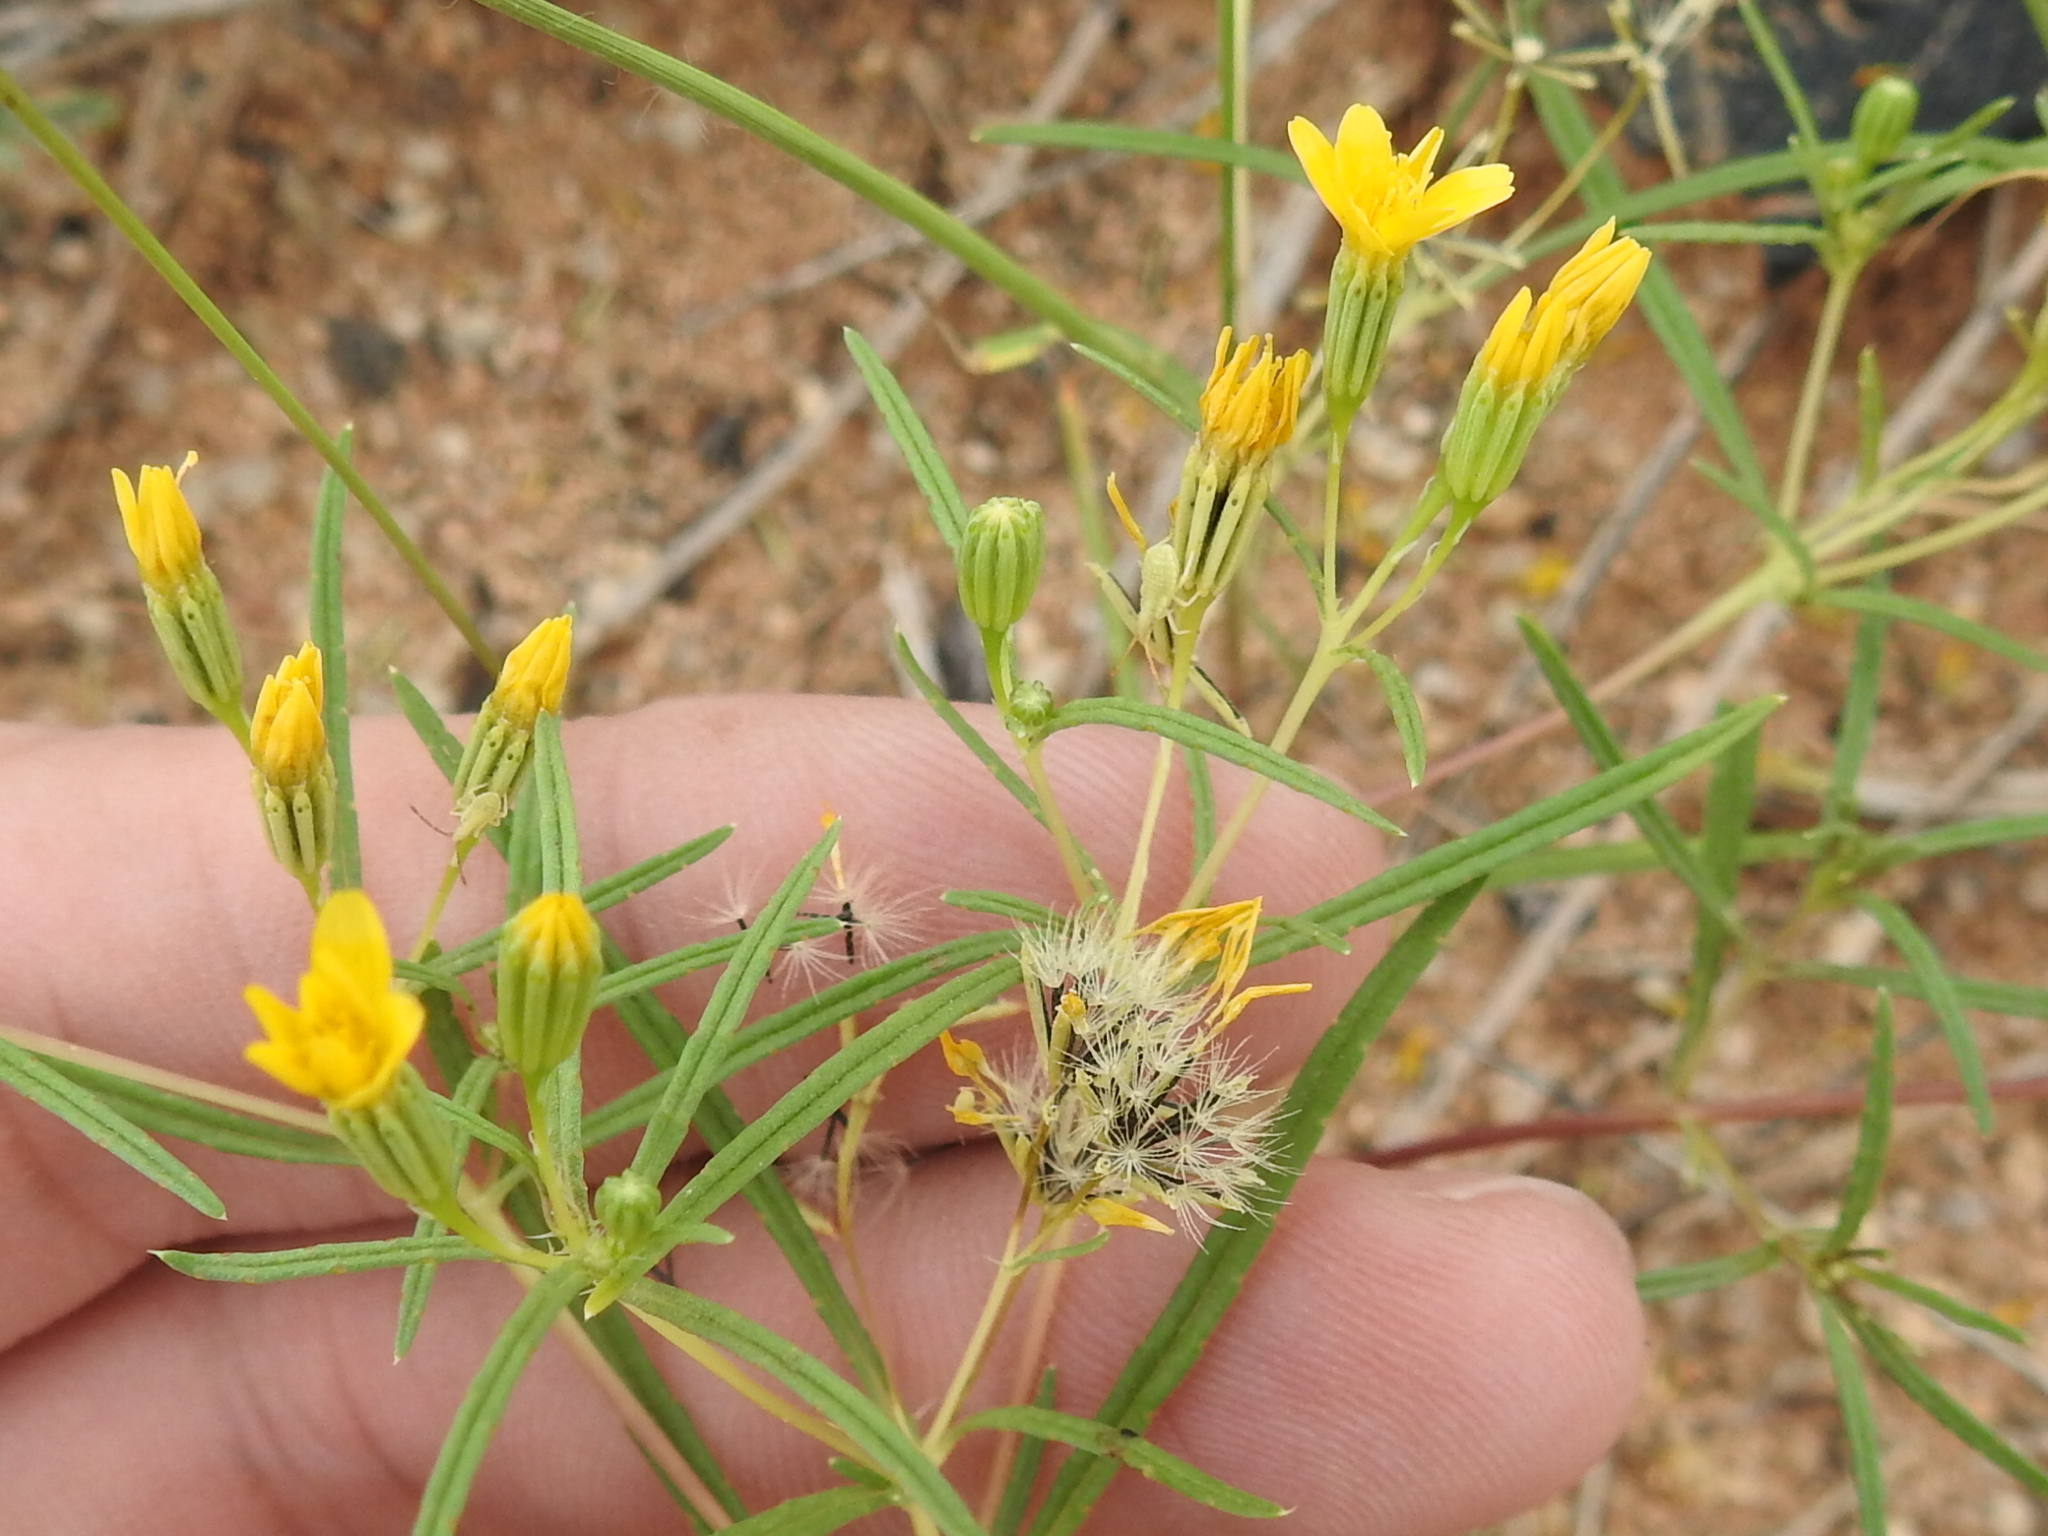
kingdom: Plantae
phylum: Tracheophyta
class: Magnoliopsida
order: Asterales
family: Asteraceae
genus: Pectis
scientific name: Pectis papposa
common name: Many-bristle chinchweed
